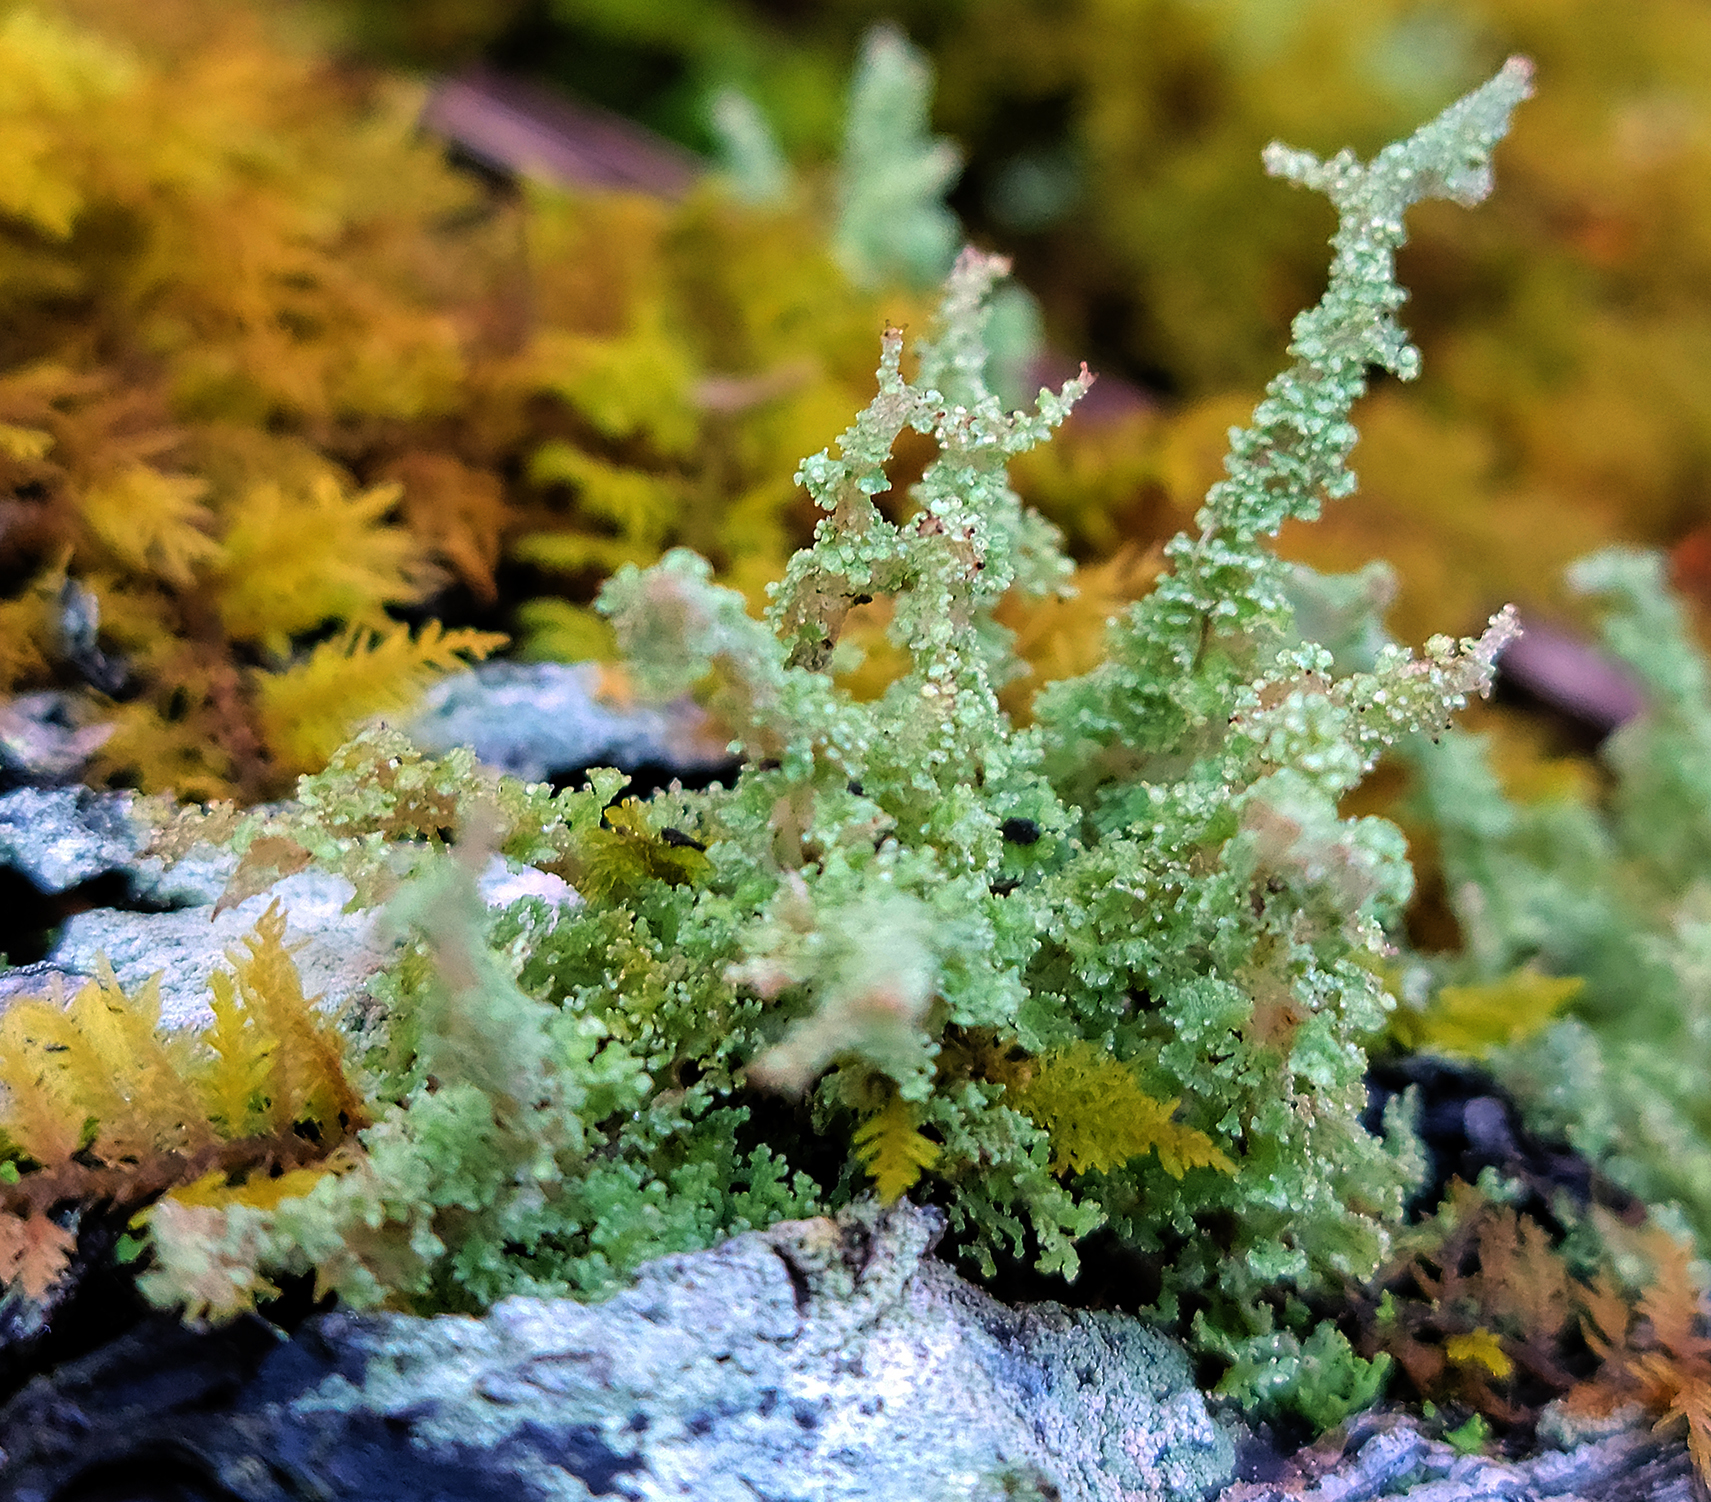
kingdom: Fungi
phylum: Ascomycota
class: Lecanoromycetes
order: Lecanorales
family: Cladoniaceae
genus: Cladonia
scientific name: Cladonia squamosa
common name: Dragon horn
